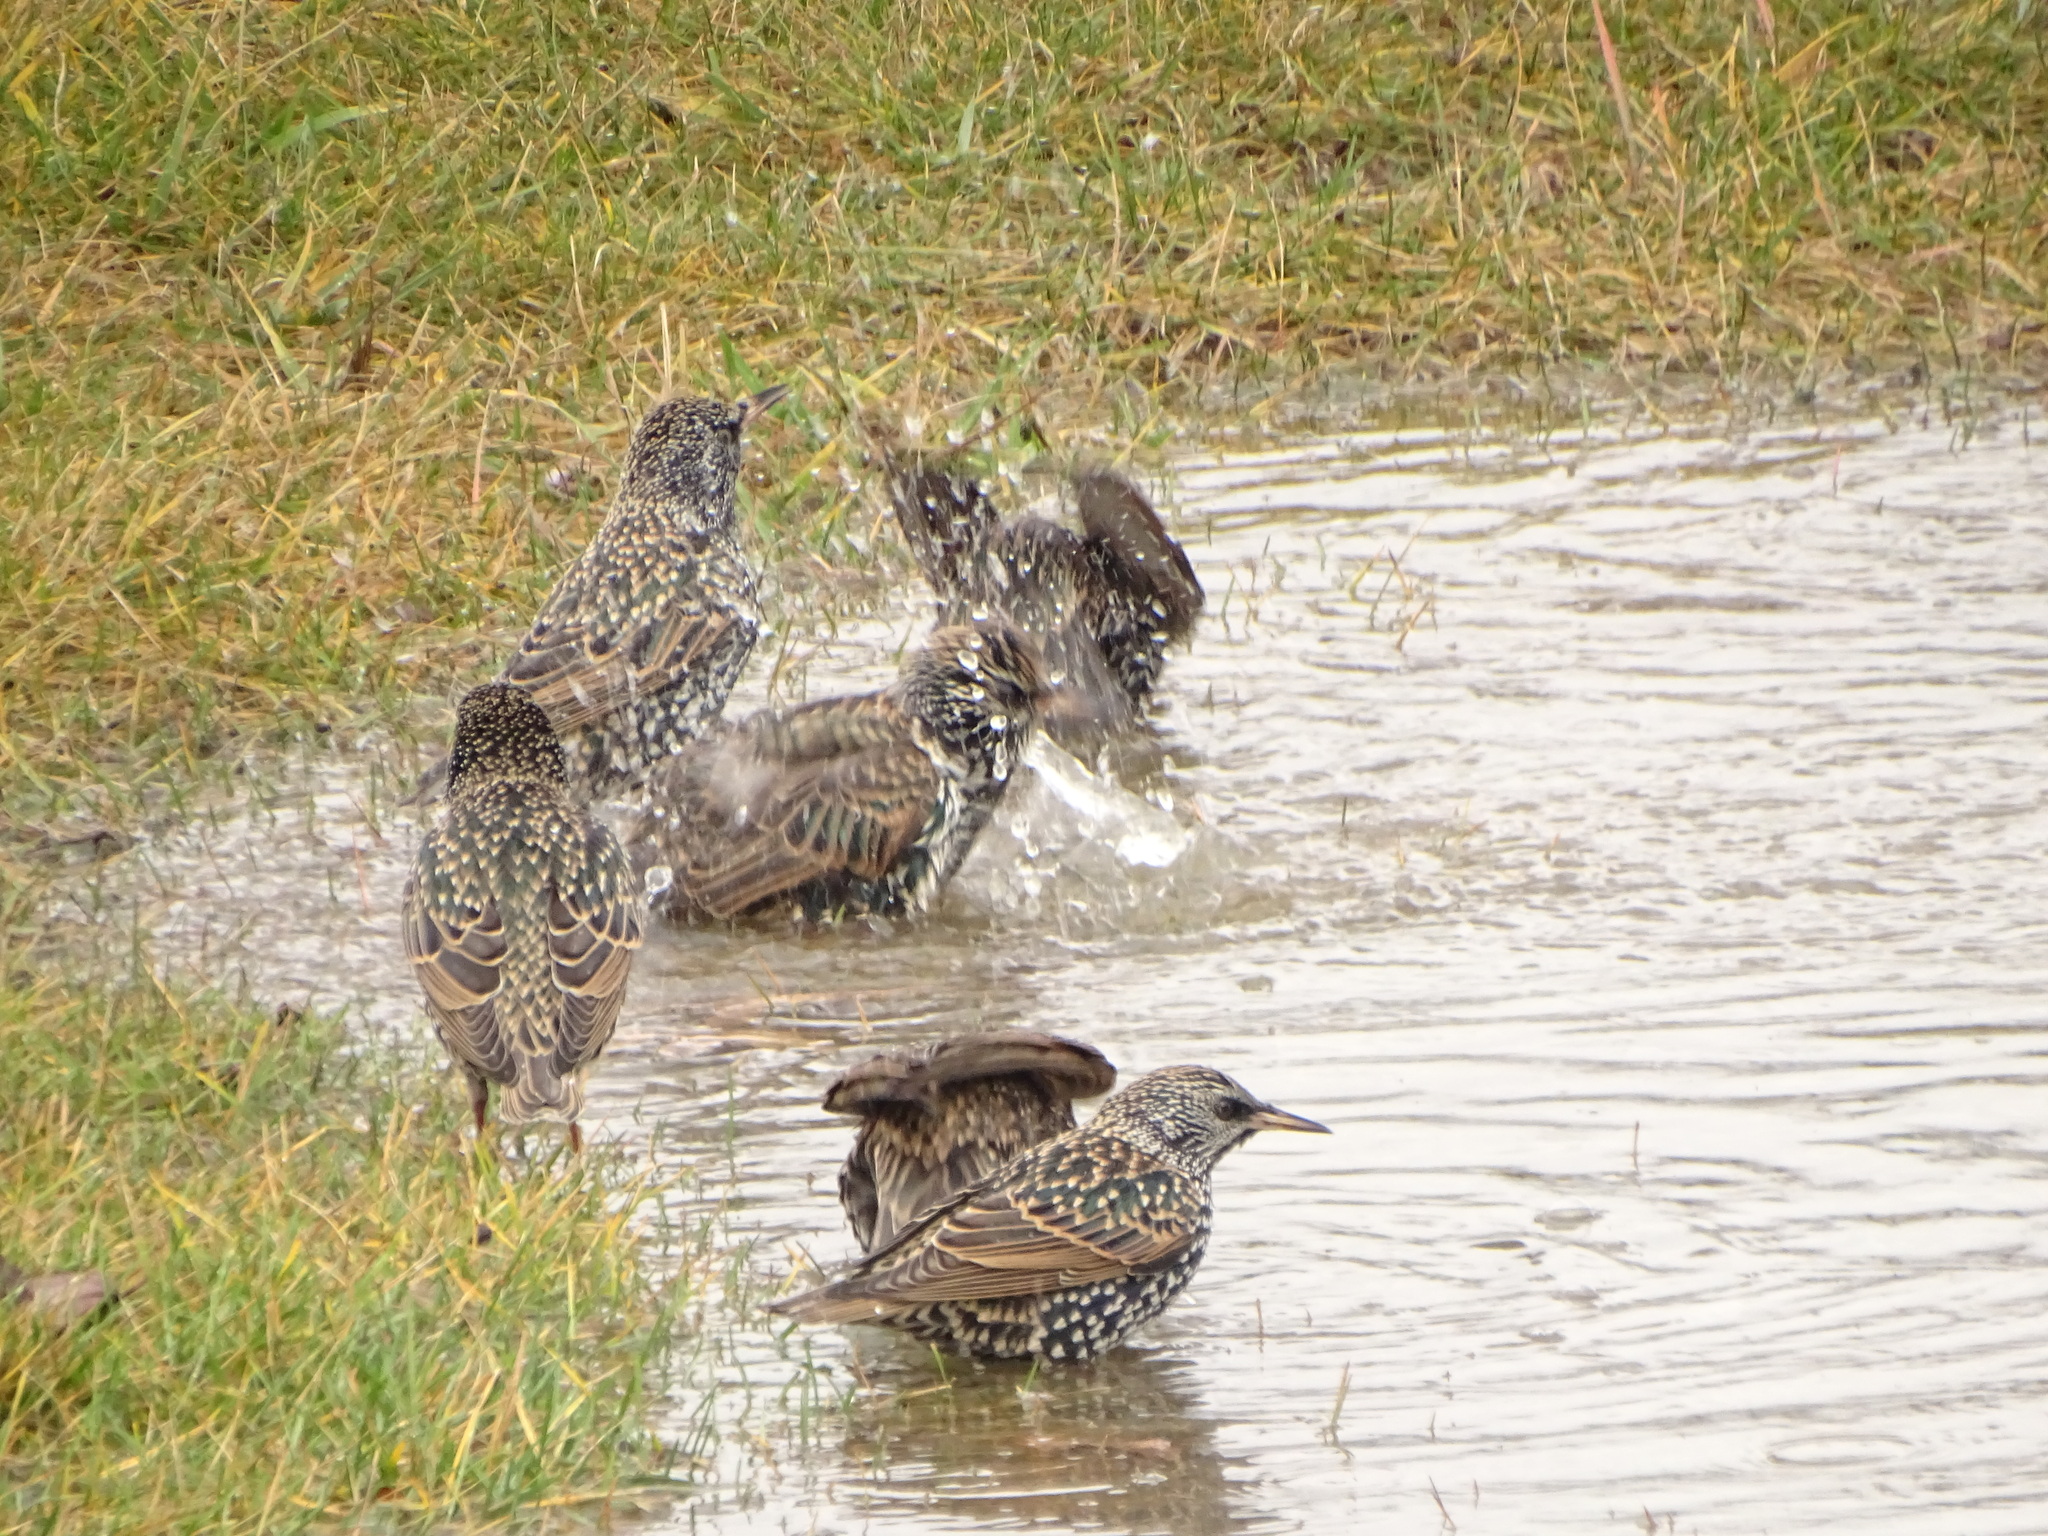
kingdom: Animalia
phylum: Chordata
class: Aves
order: Passeriformes
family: Sturnidae
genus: Sturnus
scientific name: Sturnus vulgaris
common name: Common starling
